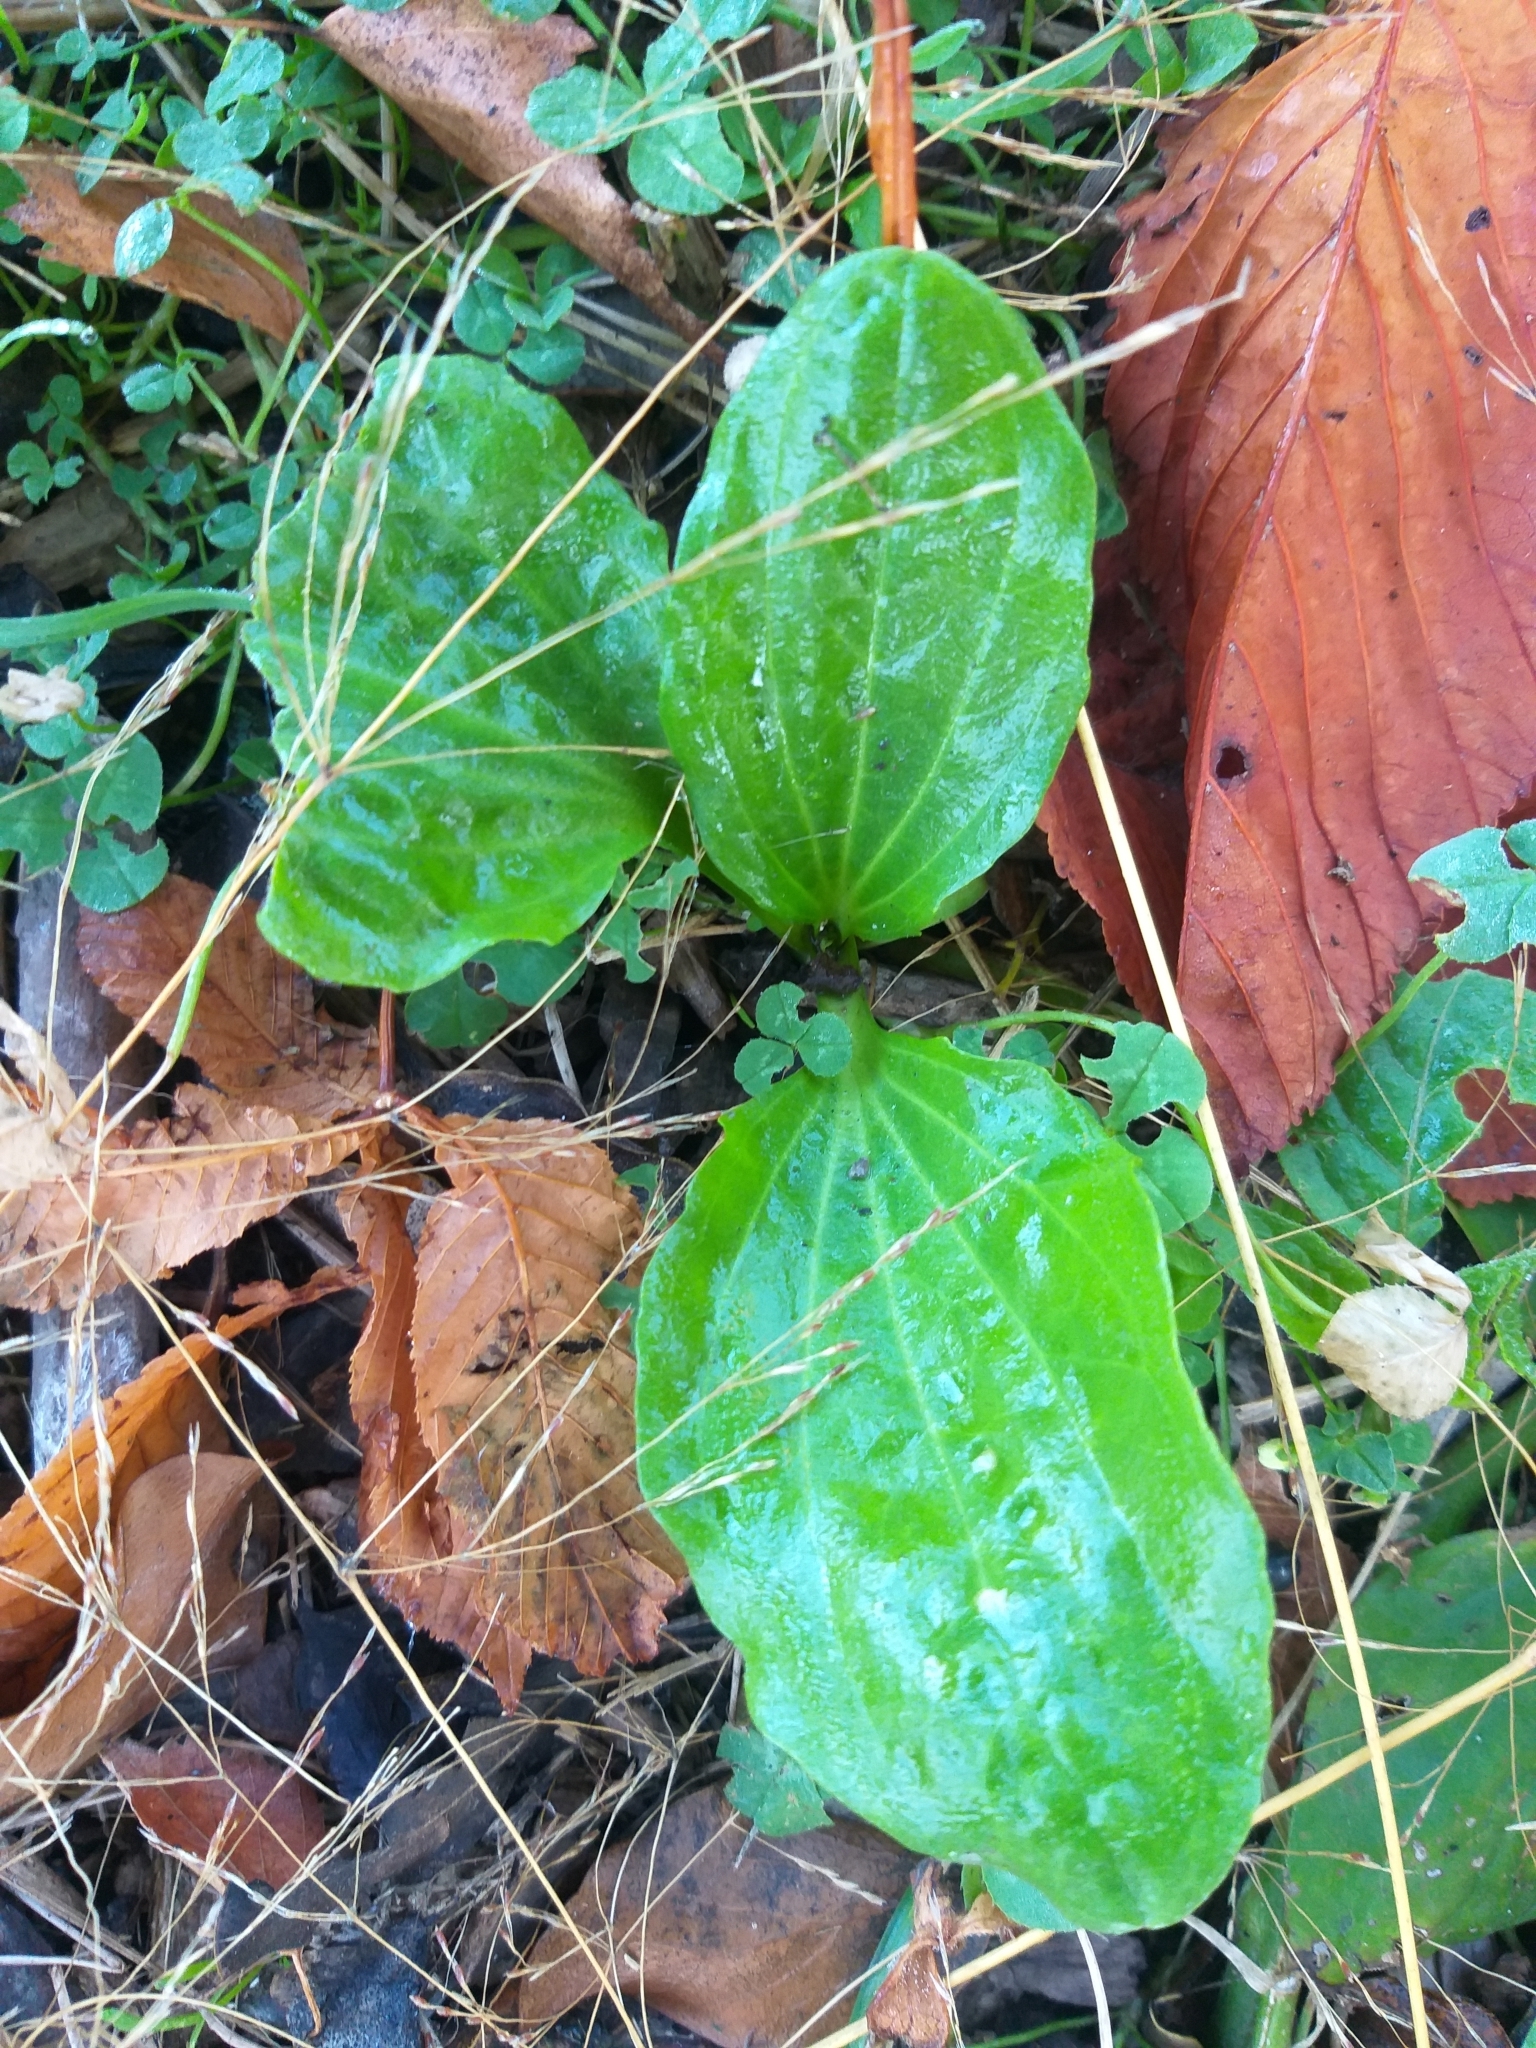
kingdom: Plantae
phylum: Tracheophyta
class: Magnoliopsida
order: Lamiales
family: Plantaginaceae
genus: Plantago
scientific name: Plantago major
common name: Common plantain
